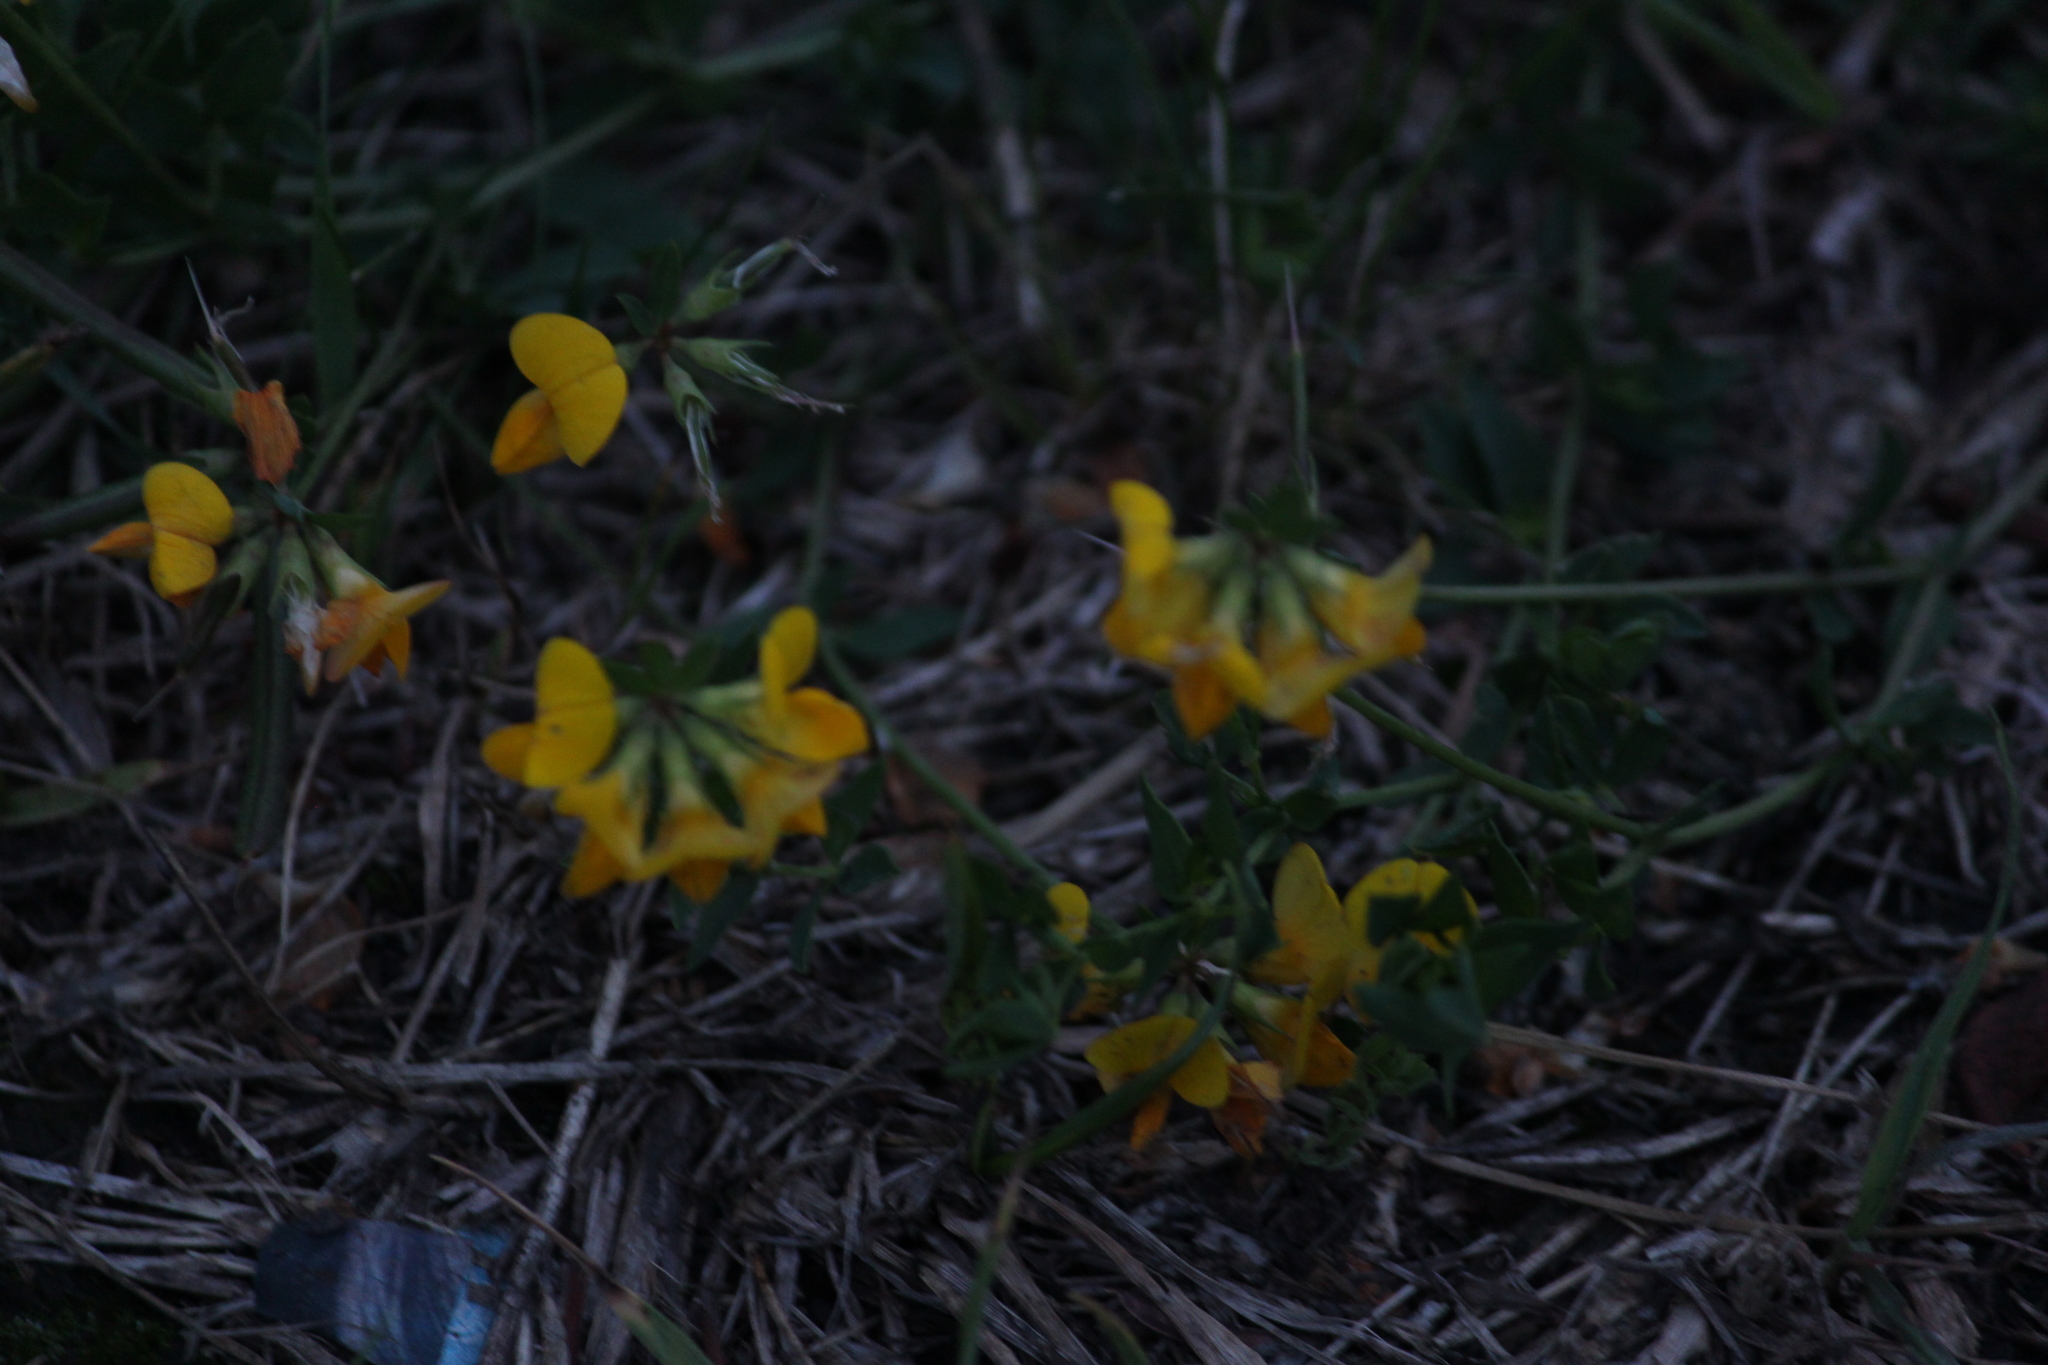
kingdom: Plantae
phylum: Tracheophyta
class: Magnoliopsida
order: Fabales
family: Fabaceae
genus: Lotus
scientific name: Lotus corniculatus
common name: Common bird's-foot-trefoil
